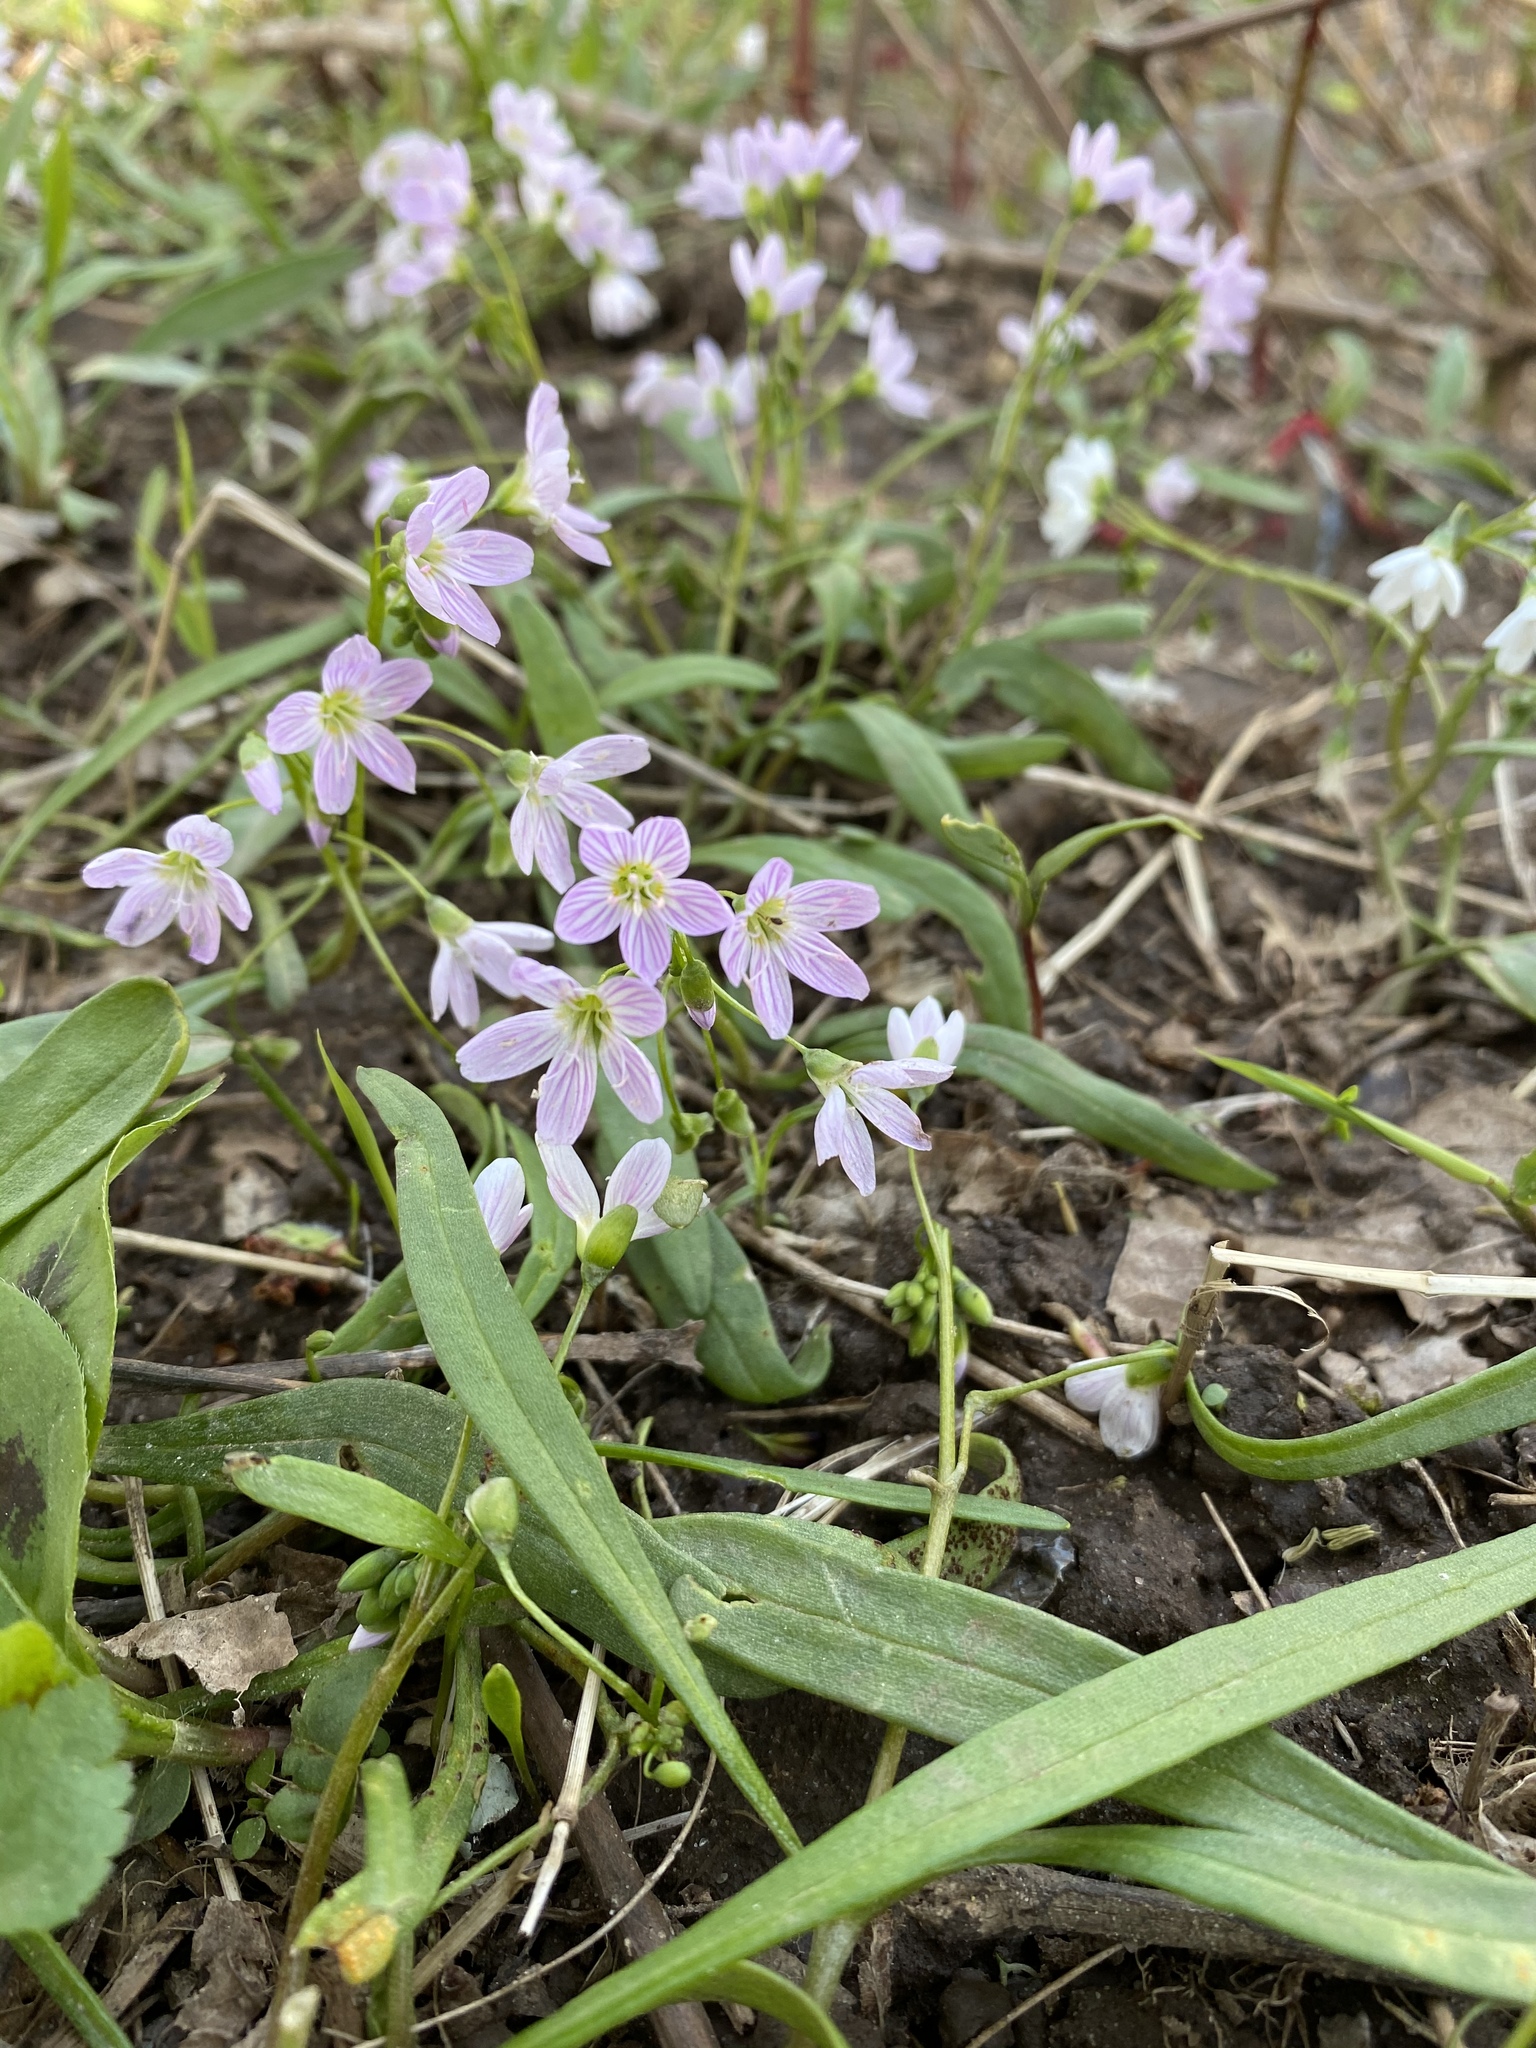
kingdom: Plantae
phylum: Tracheophyta
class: Magnoliopsida
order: Caryophyllales
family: Montiaceae
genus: Claytonia
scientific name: Claytonia virginica
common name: Virginia springbeauty
